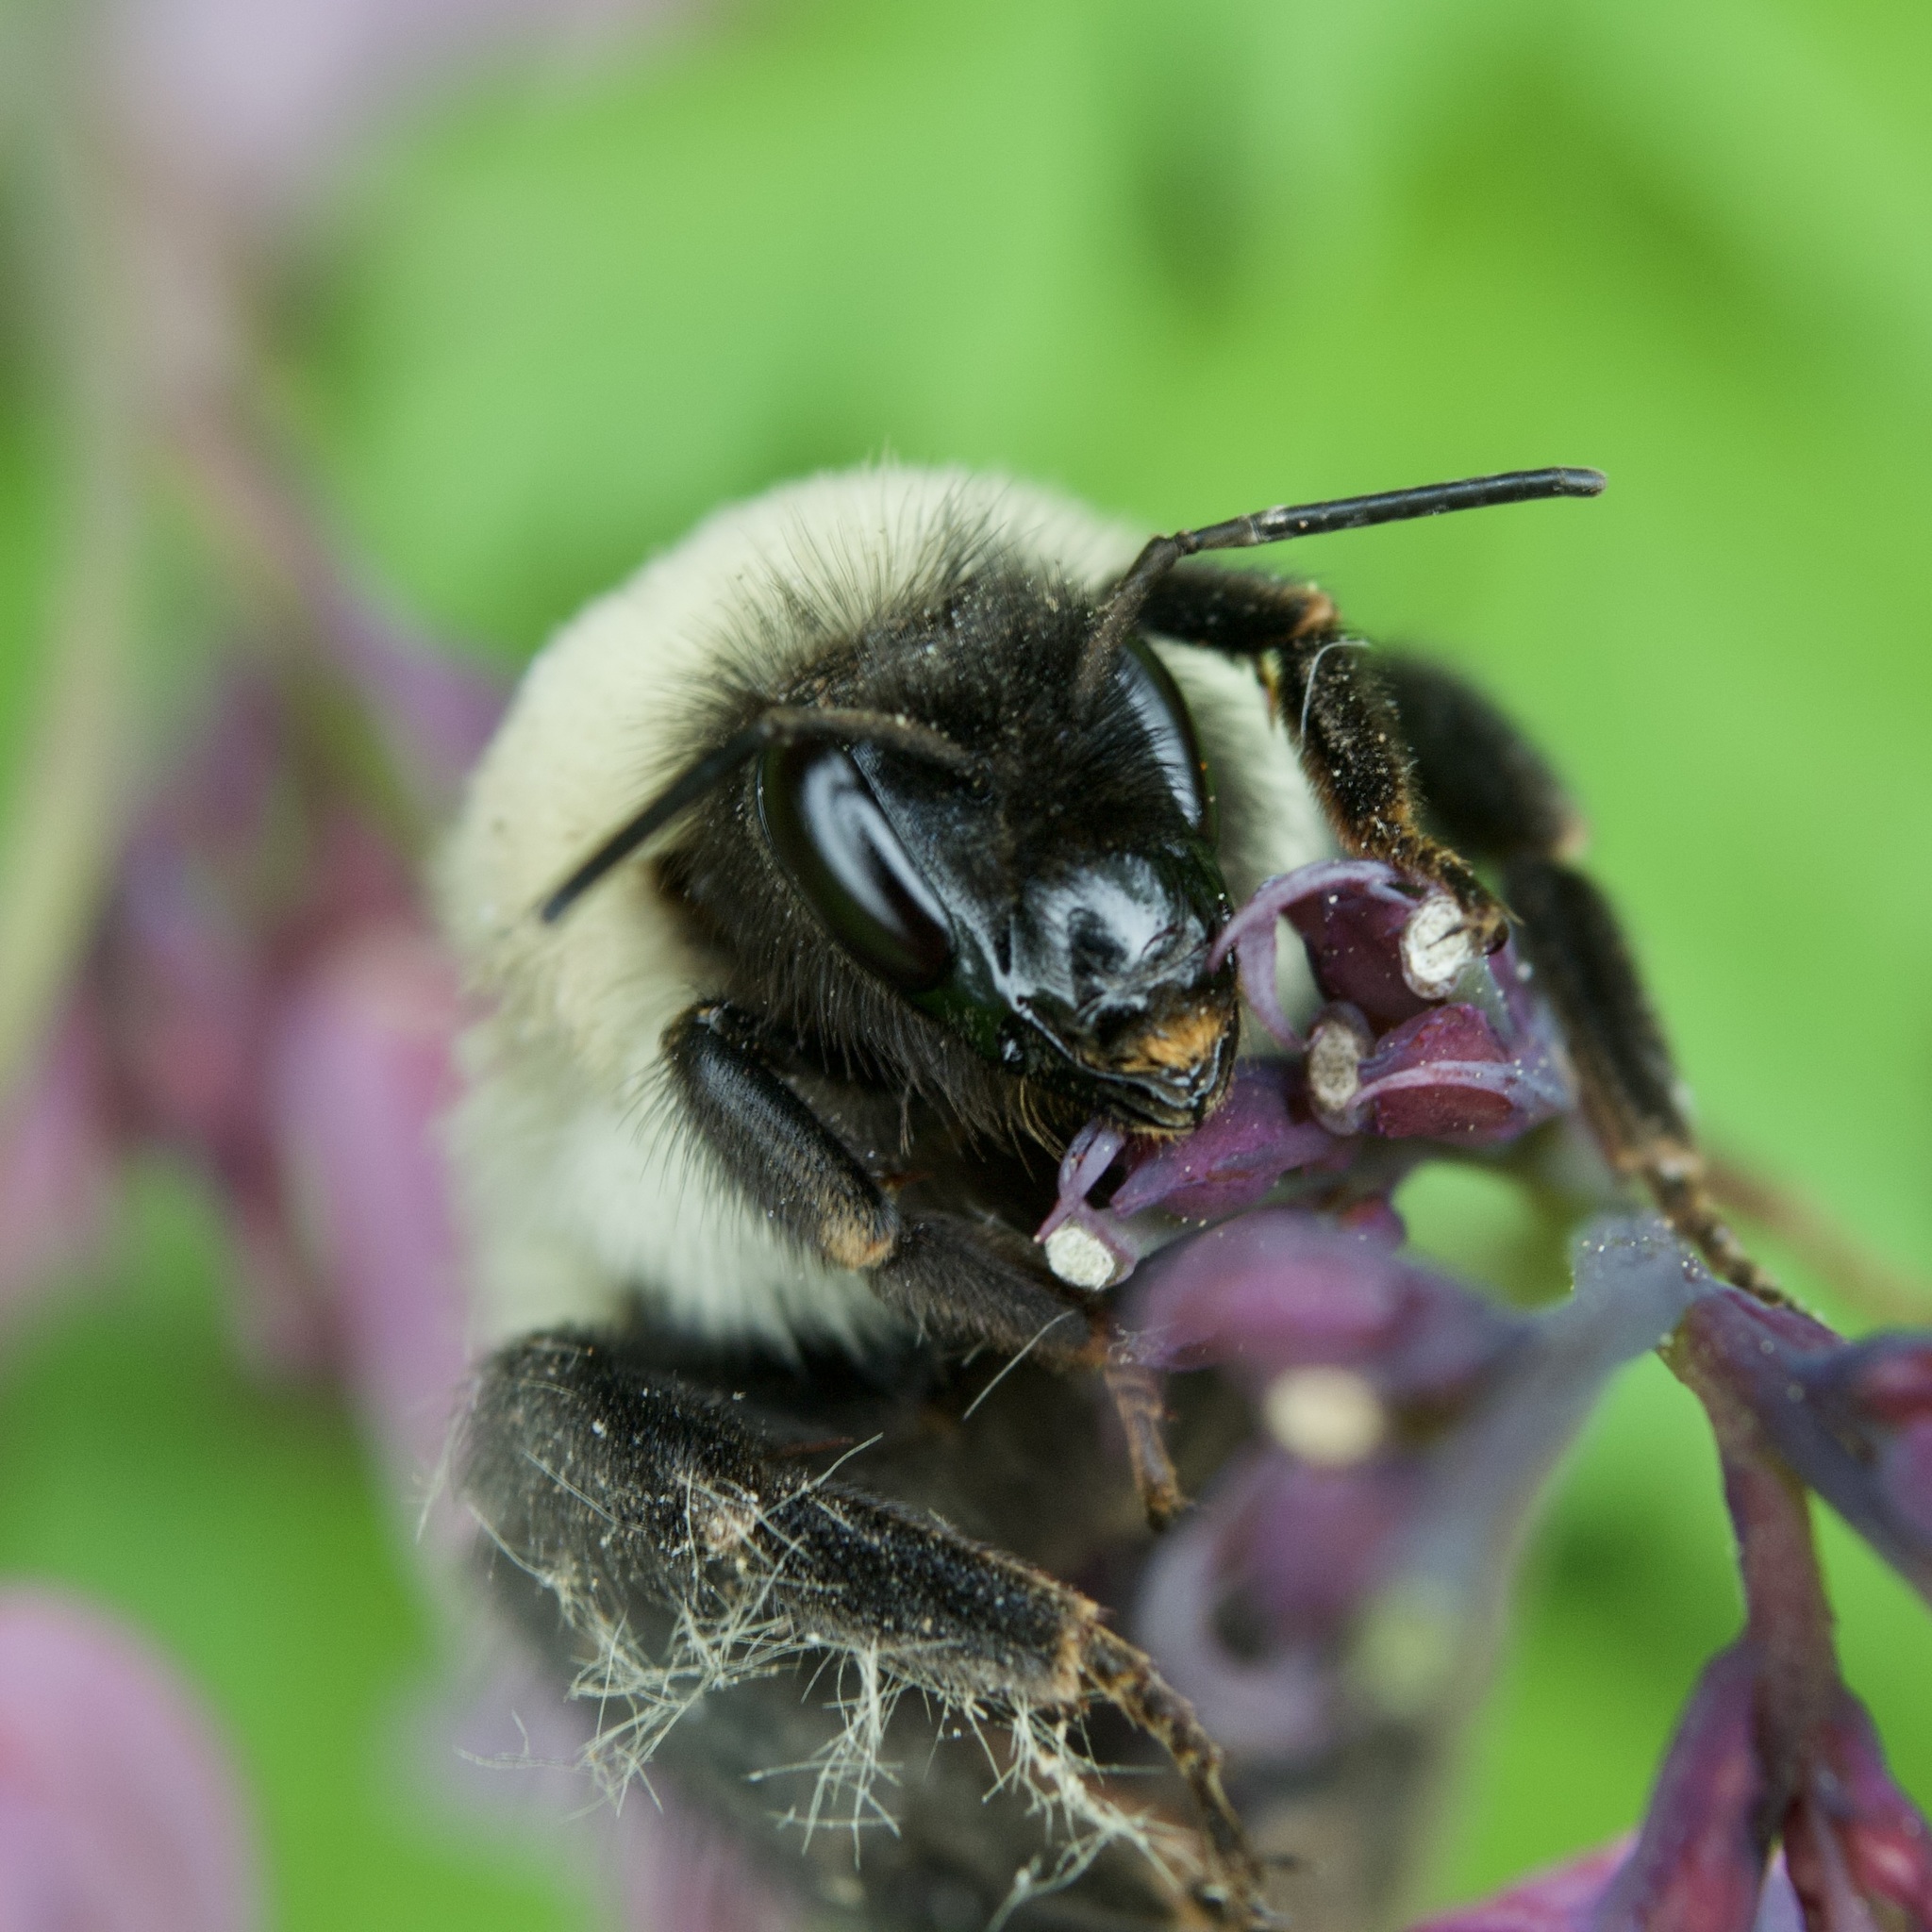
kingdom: Animalia
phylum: Arthropoda
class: Insecta
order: Hymenoptera
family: Apidae
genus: Bombus
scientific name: Bombus
